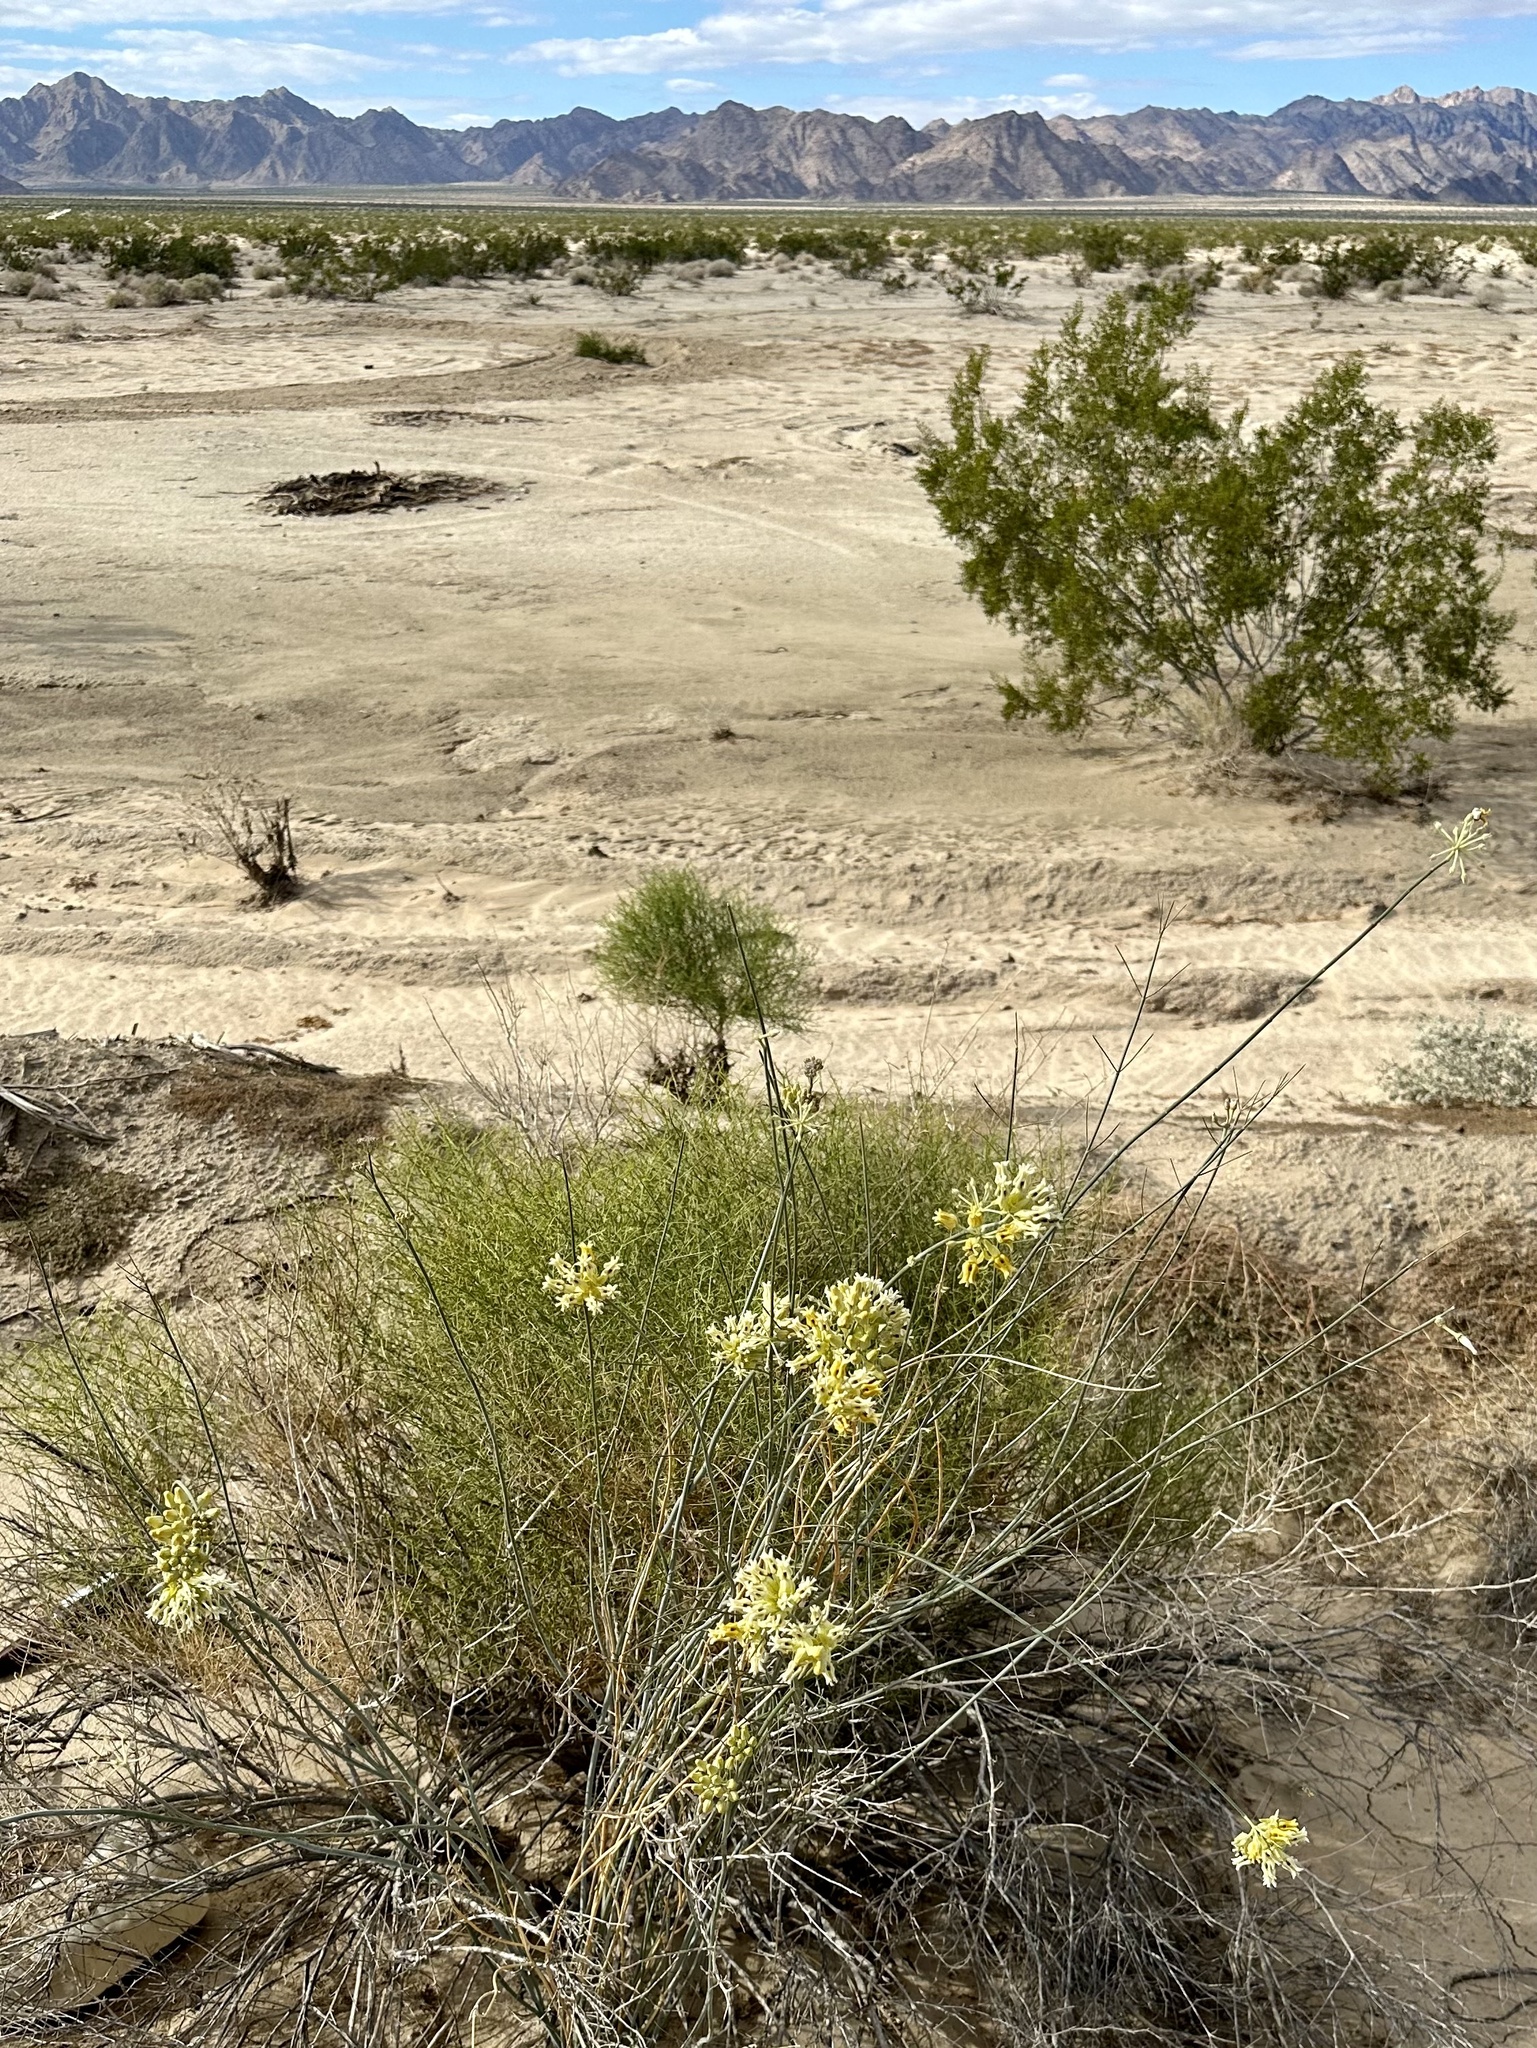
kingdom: Plantae
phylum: Tracheophyta
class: Magnoliopsida
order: Gentianales
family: Apocynaceae
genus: Asclepias
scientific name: Asclepias subulata
